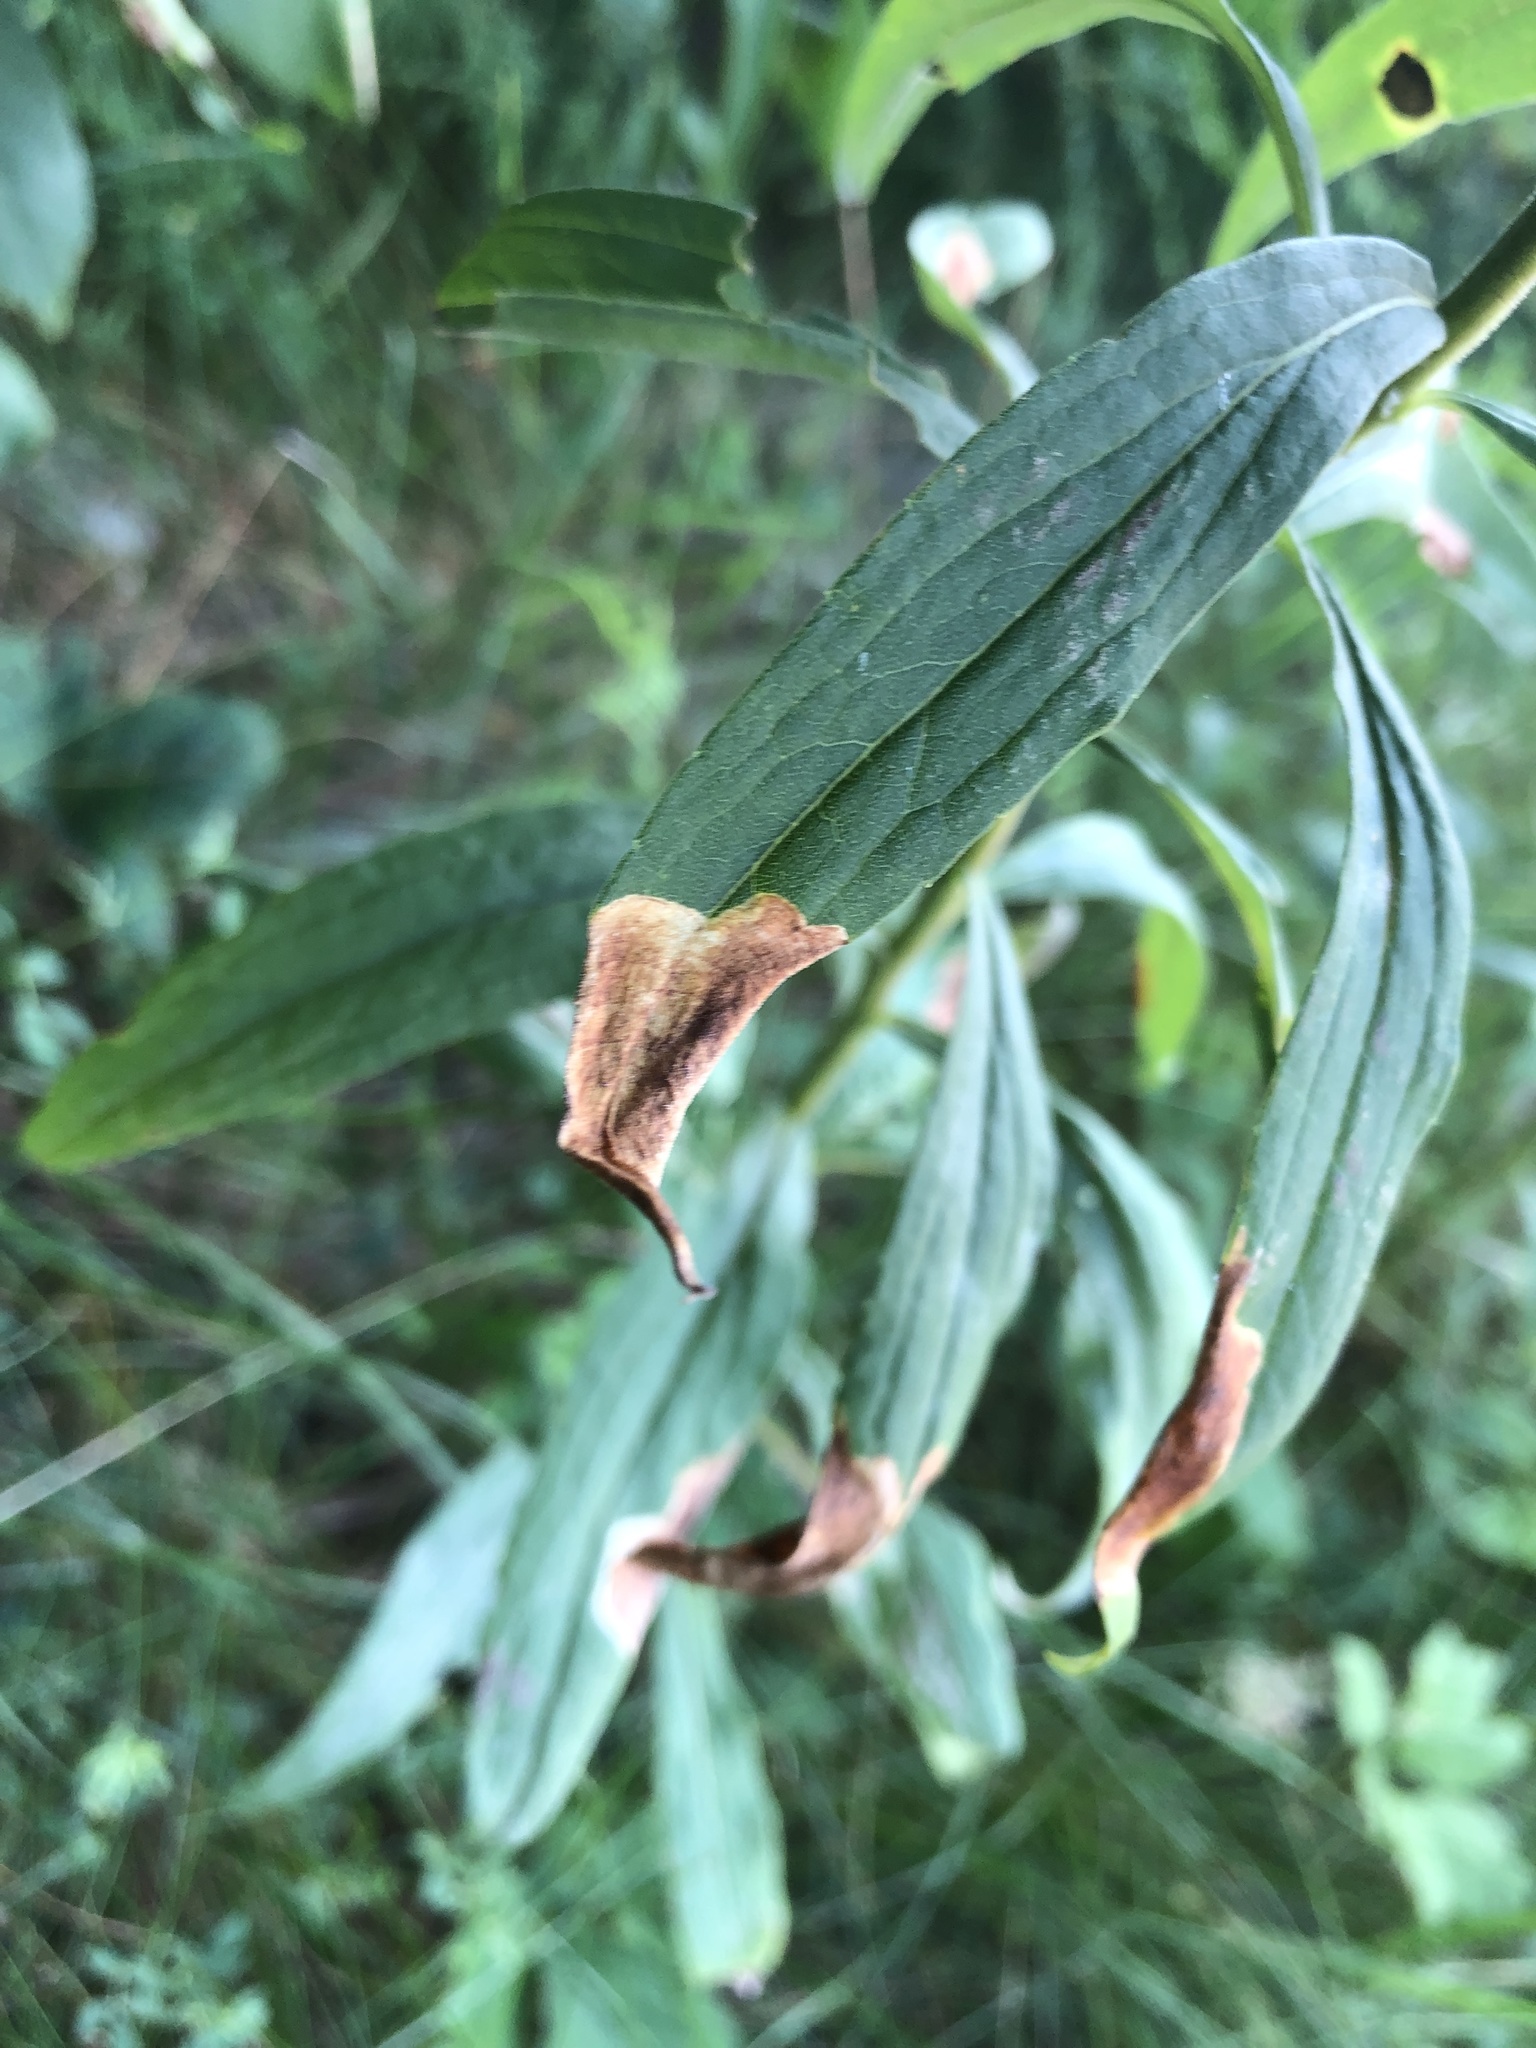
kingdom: Animalia
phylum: Arthropoda
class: Insecta
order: Diptera
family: Agromyzidae
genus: Nemorimyza
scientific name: Nemorimyza posticata
